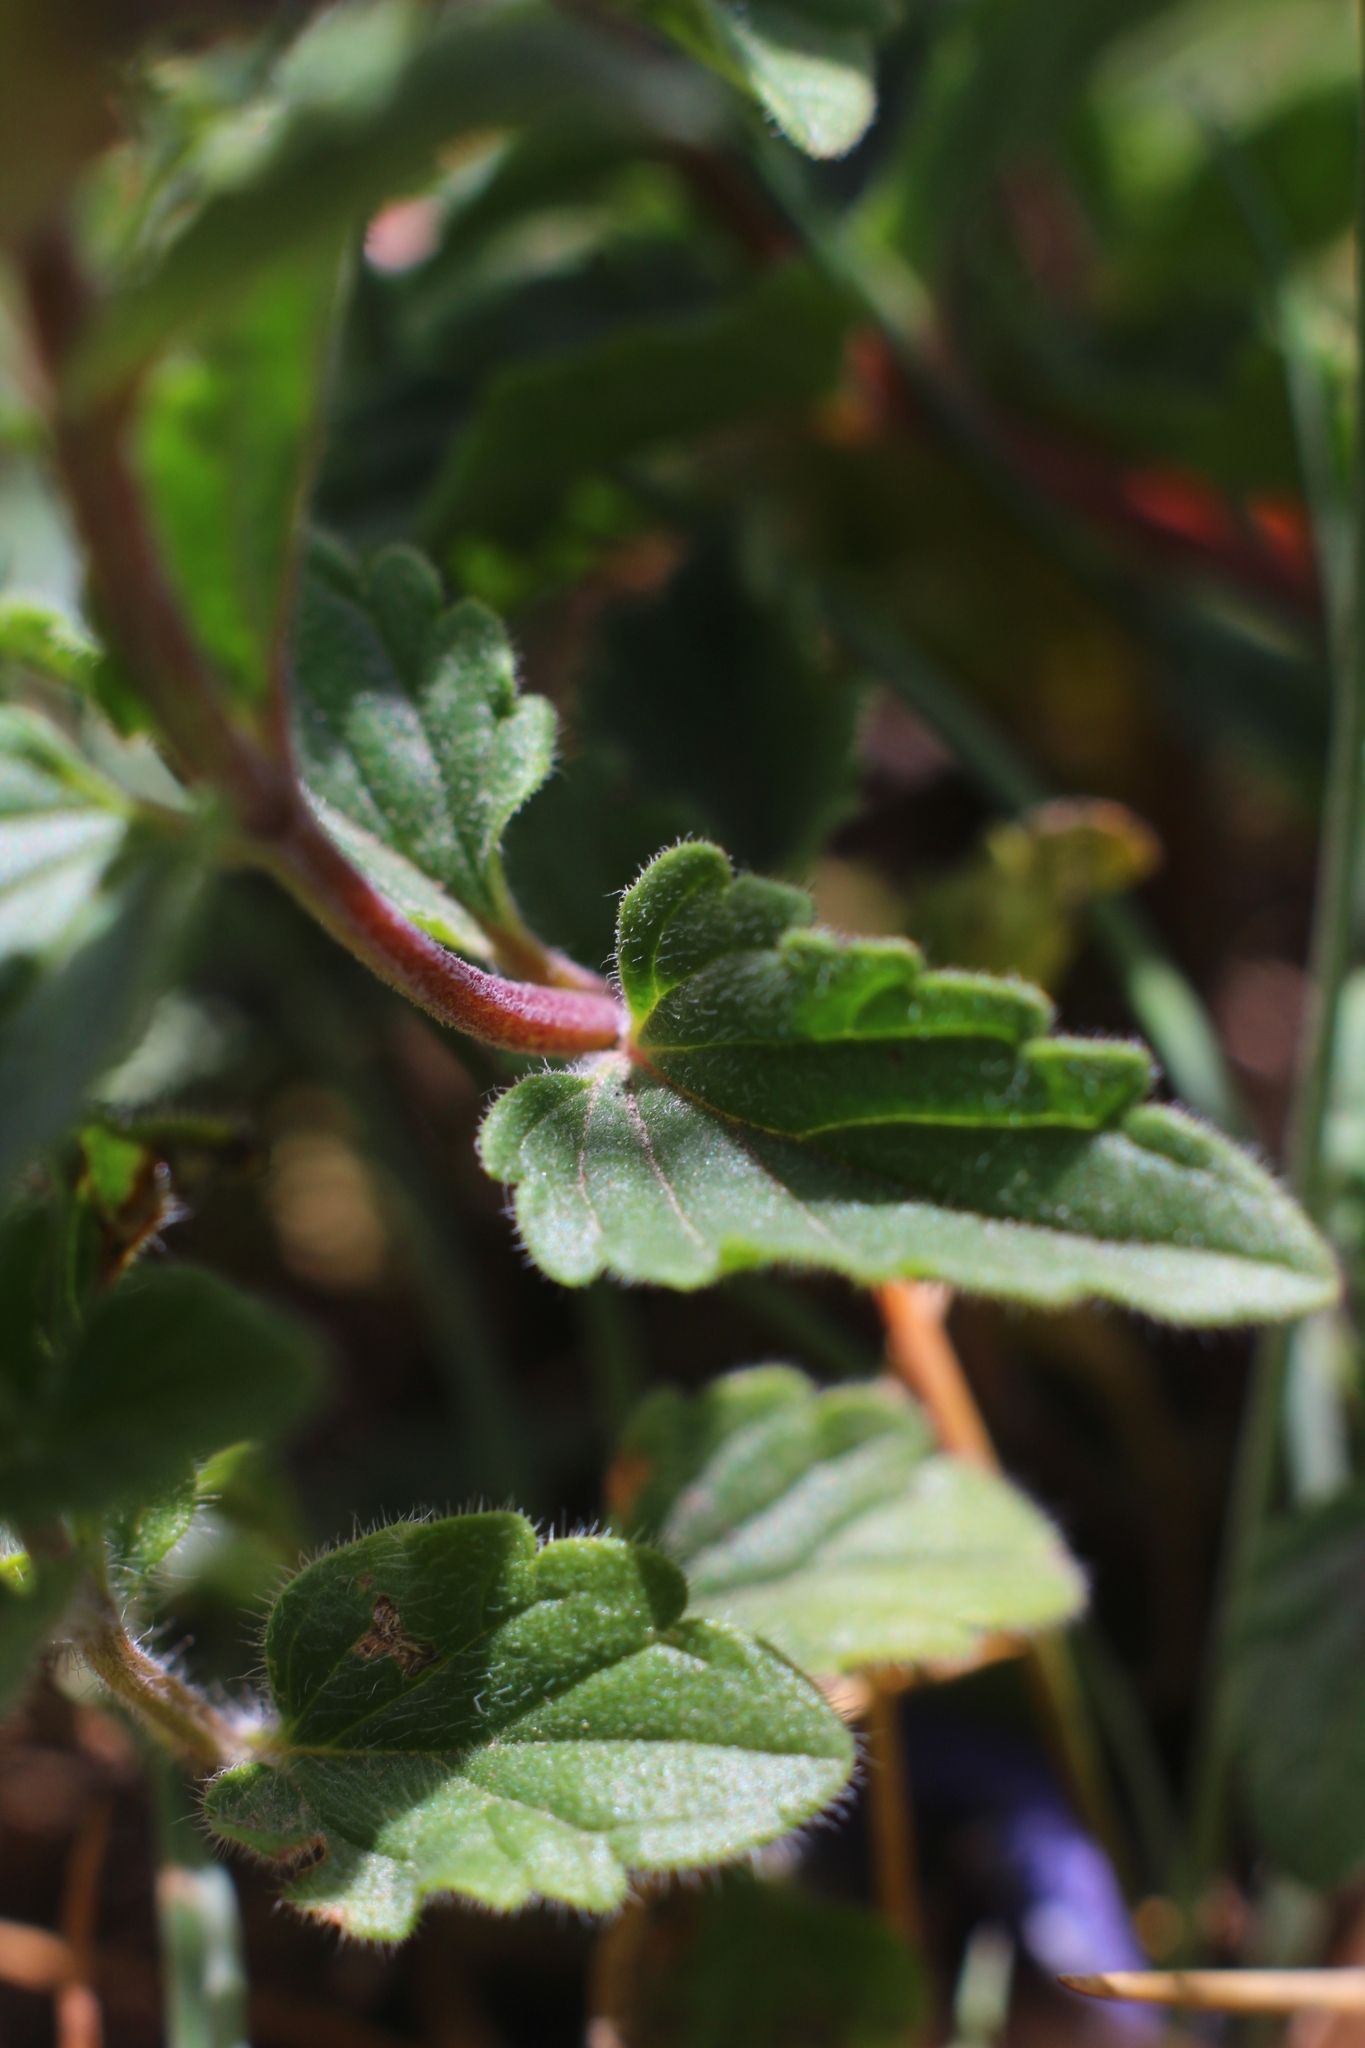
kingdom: Plantae
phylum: Tracheophyta
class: Magnoliopsida
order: Lamiales
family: Lamiaceae
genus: Scutellaria
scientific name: Scutellaria alpina
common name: Alpine scullcap
